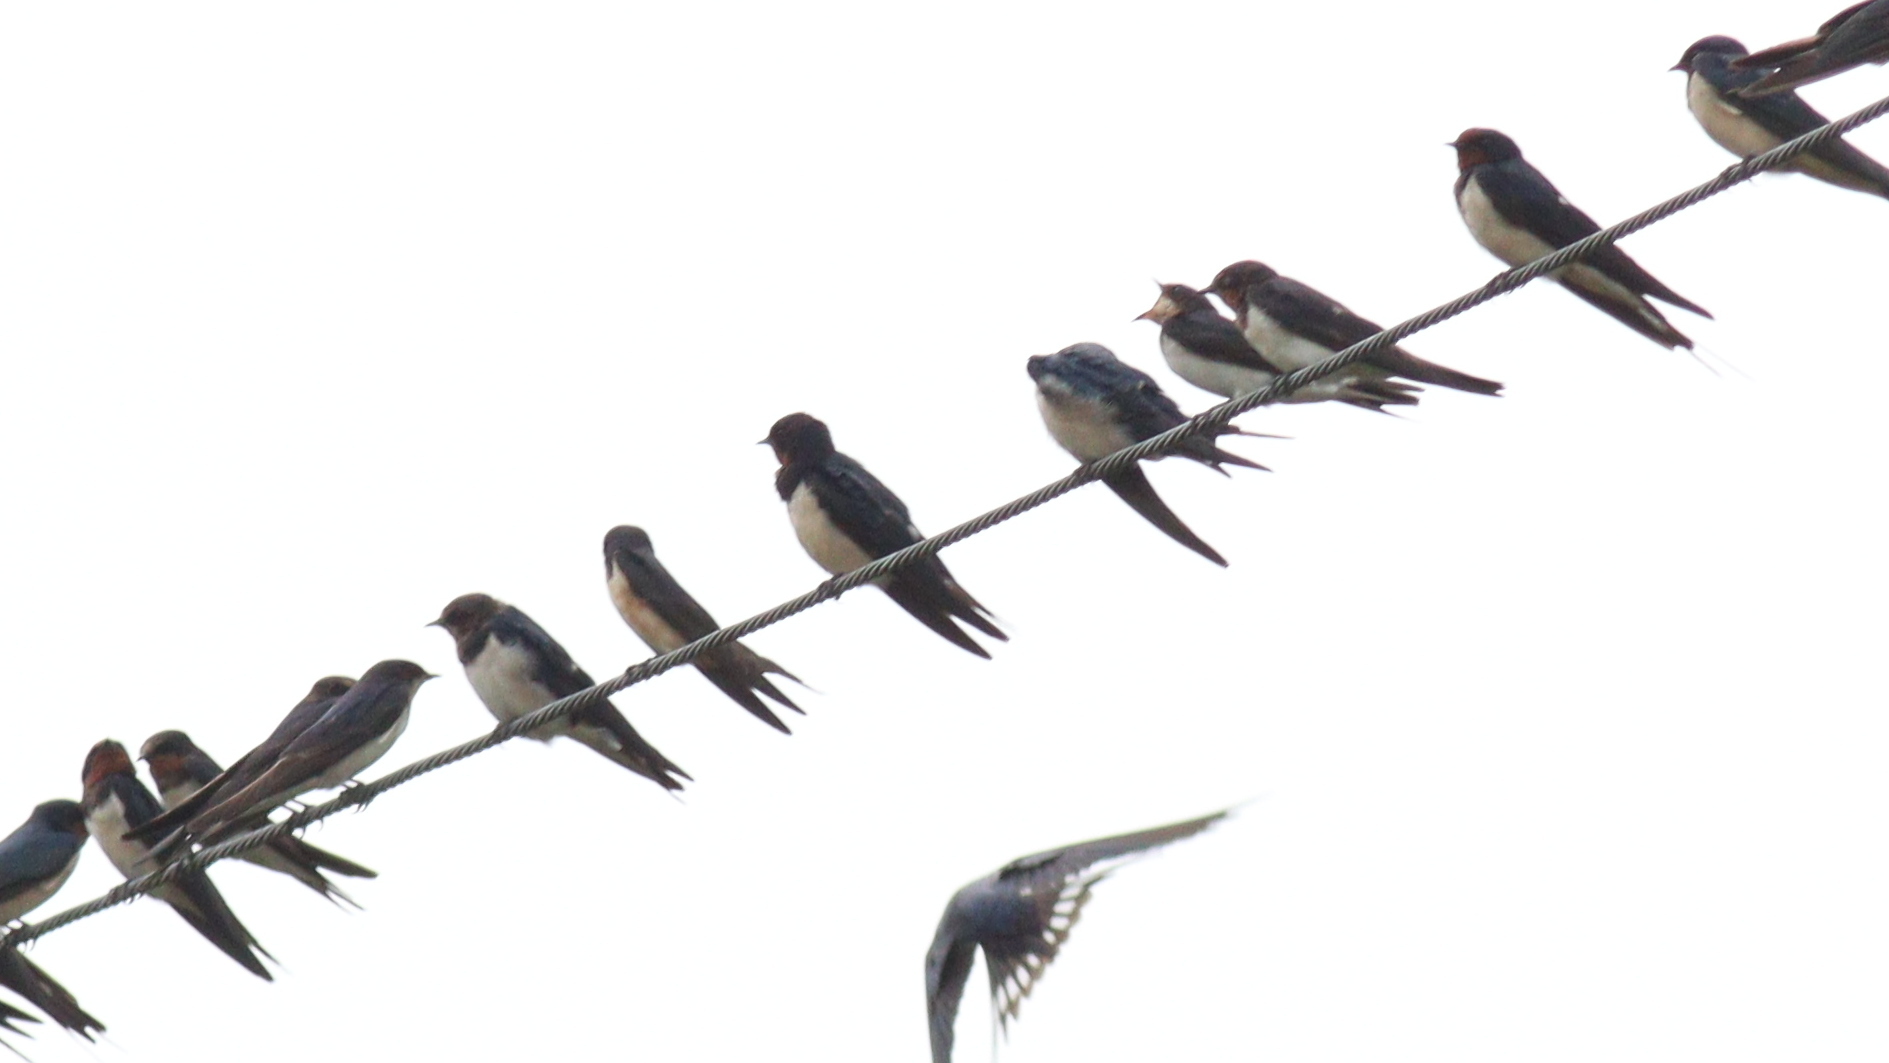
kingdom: Animalia
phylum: Chordata
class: Aves
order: Passeriformes
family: Hirundinidae
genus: Hirundo
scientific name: Hirundo rustica
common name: Barn swallow
